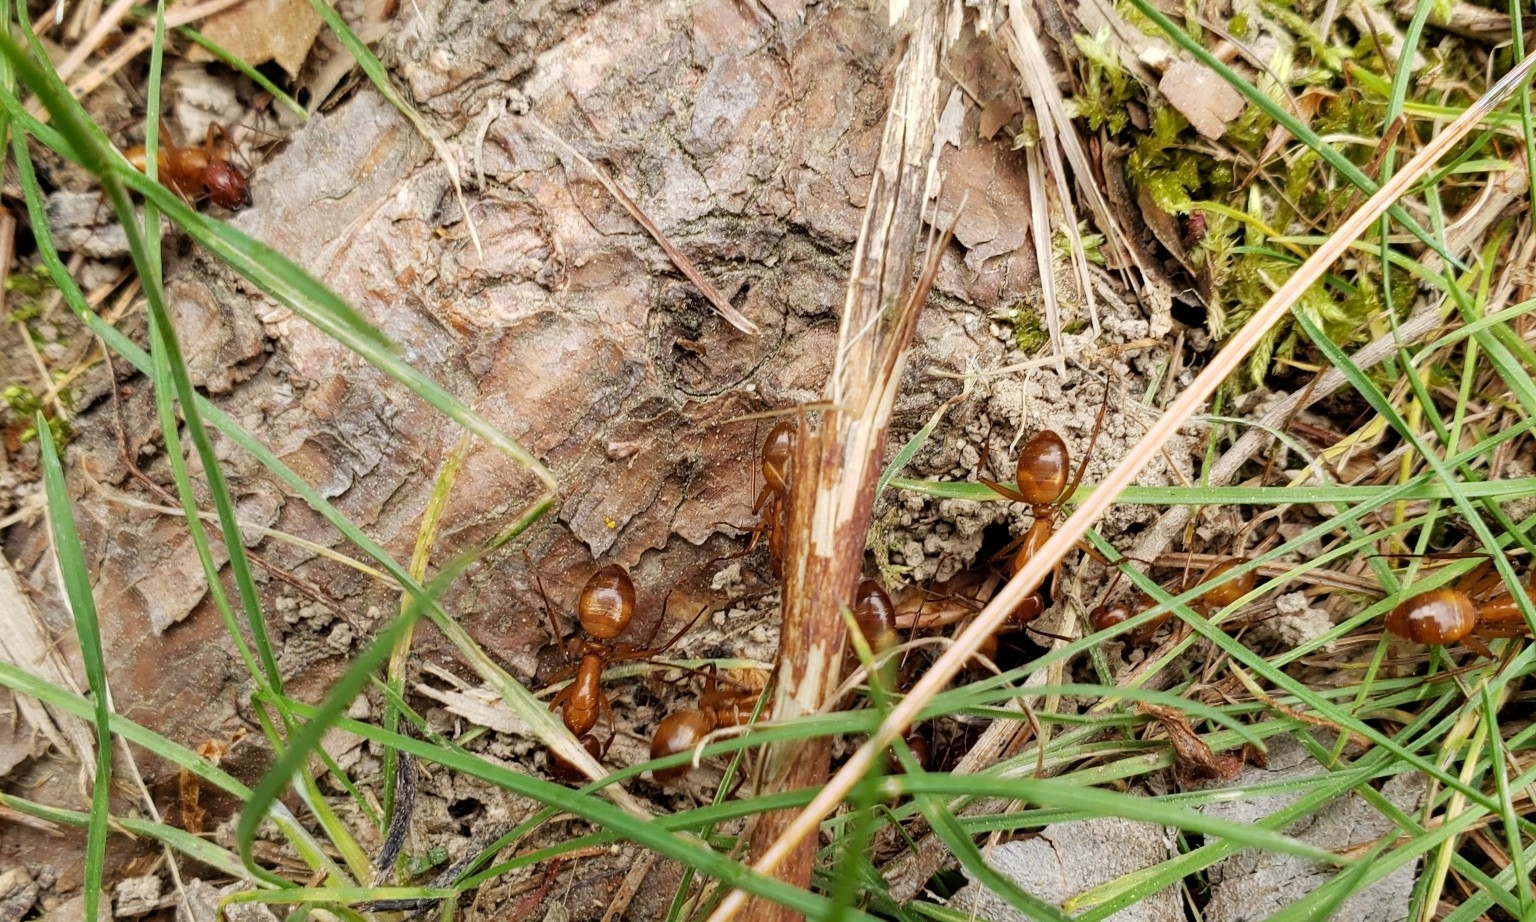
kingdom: Animalia
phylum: Arthropoda
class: Insecta
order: Hymenoptera
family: Formicidae
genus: Camponotus
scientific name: Camponotus castaneus
